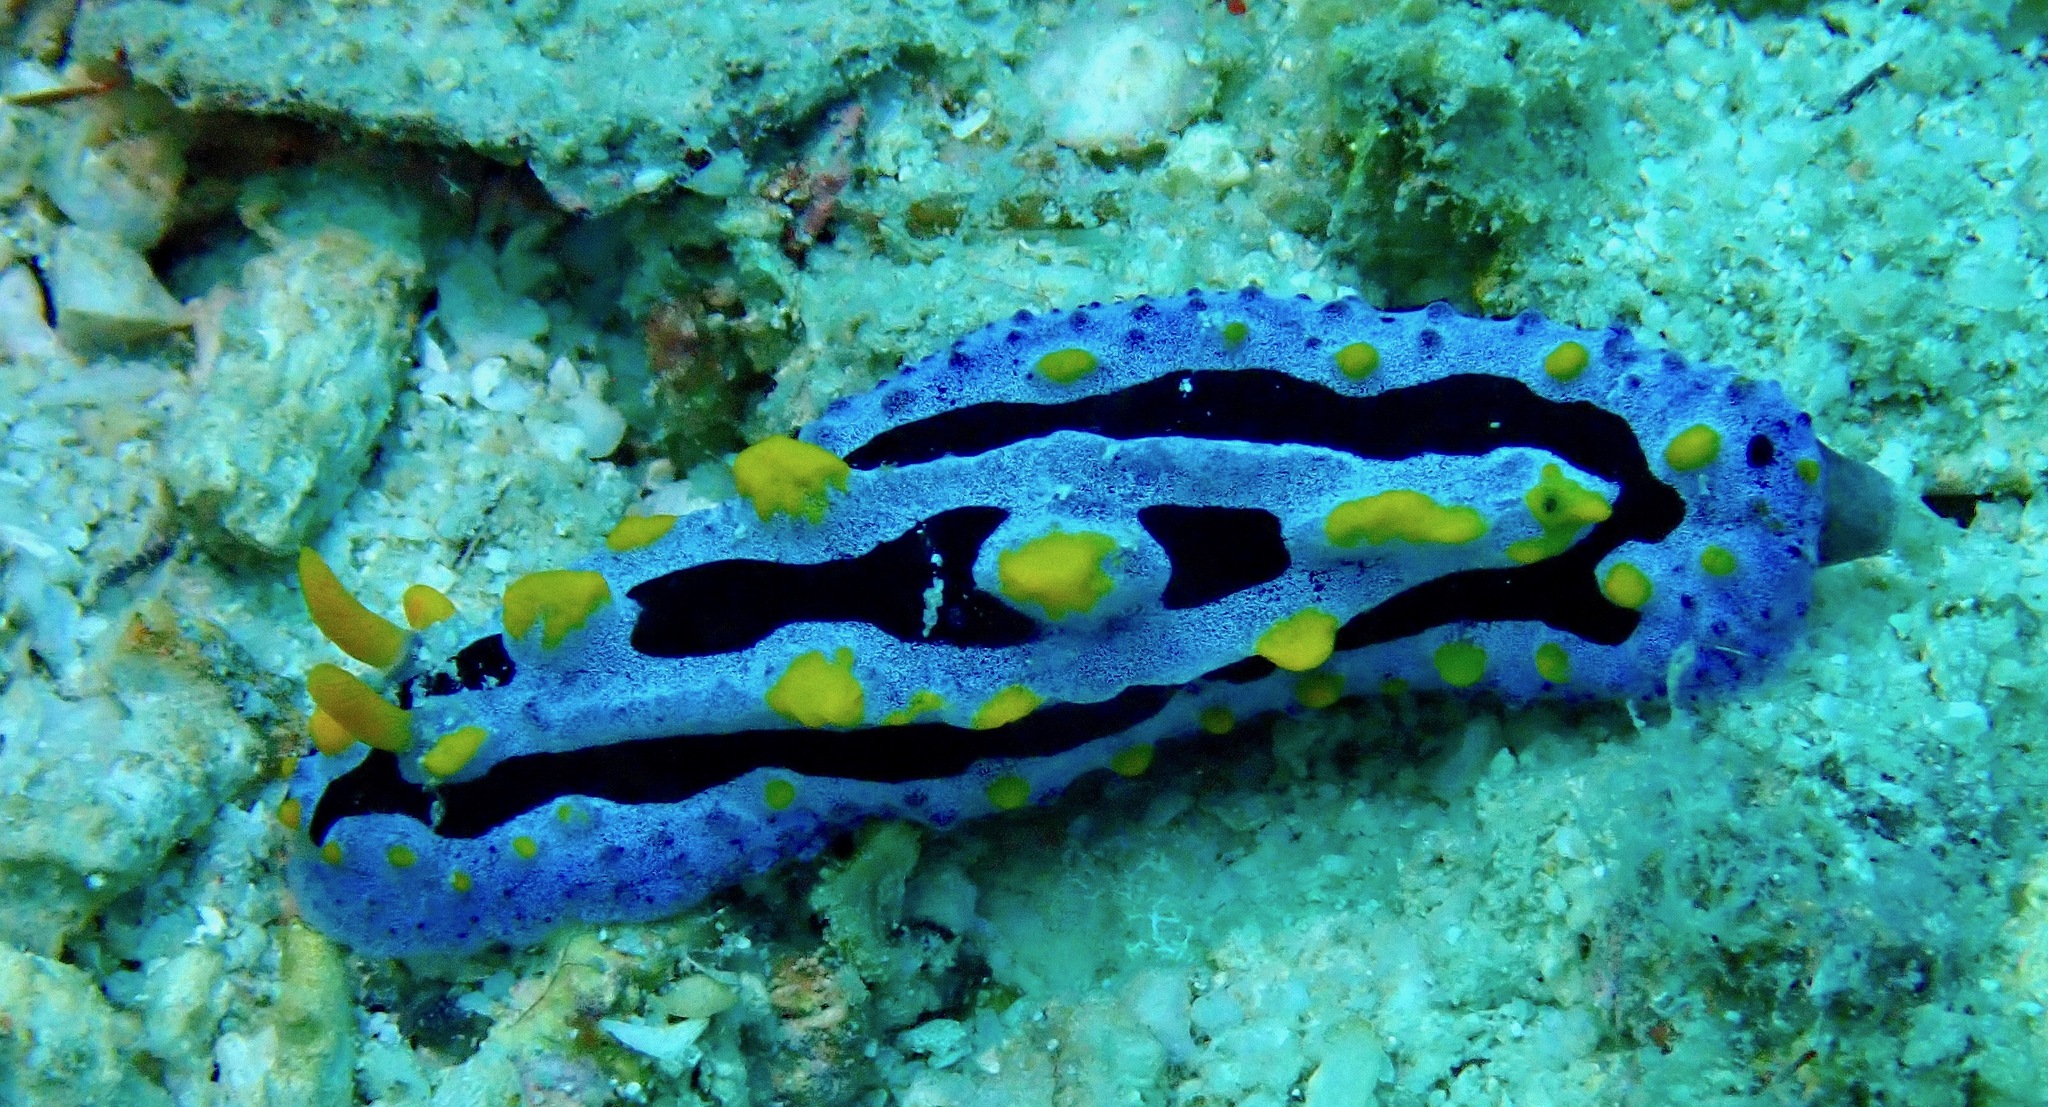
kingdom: Animalia
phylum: Mollusca
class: Gastropoda
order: Nudibranchia
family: Phyllidiidae
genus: Phyllidia
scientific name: Phyllidia coelestis
